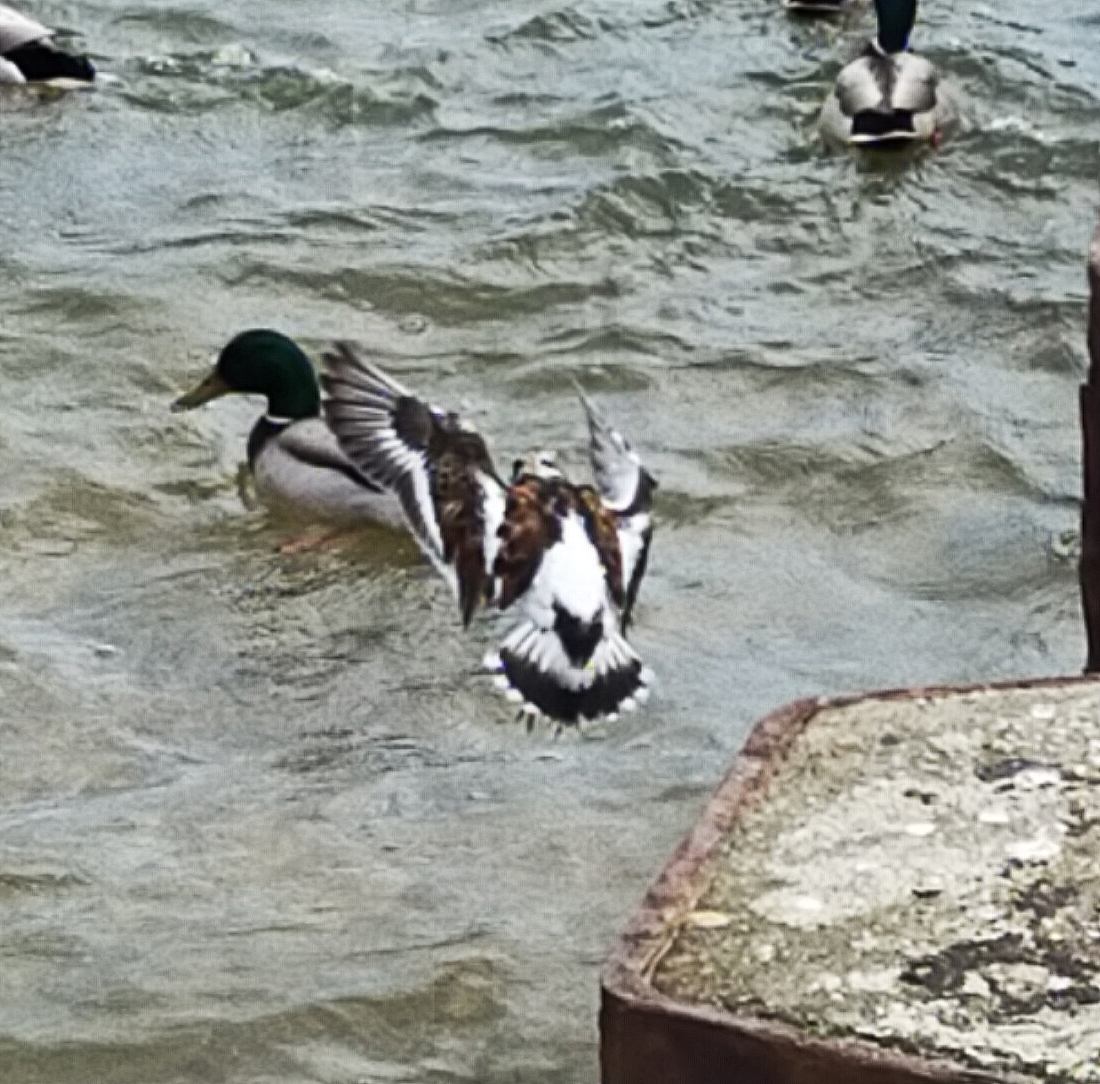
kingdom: Animalia
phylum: Chordata
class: Aves
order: Charadriiformes
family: Scolopacidae
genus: Arenaria
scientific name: Arenaria interpres
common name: Ruddy turnstone
